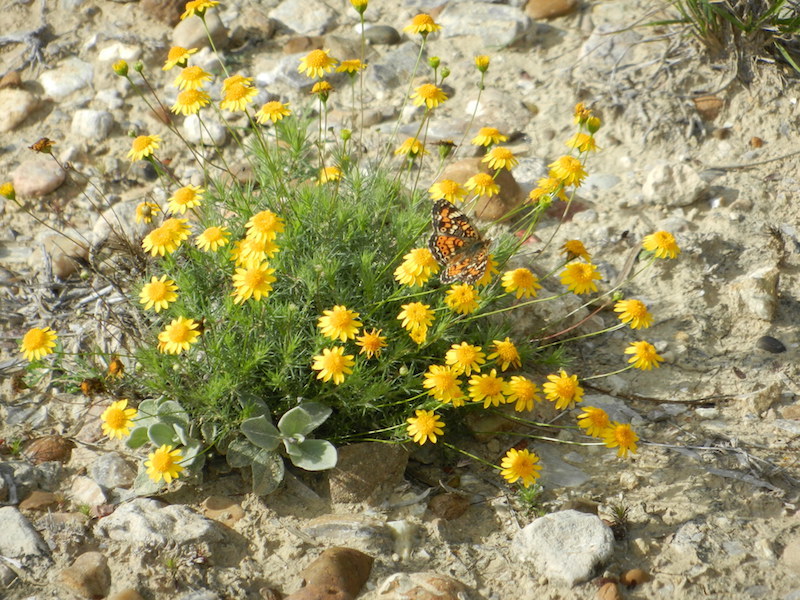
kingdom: Plantae
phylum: Tracheophyta
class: Magnoliopsida
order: Asterales
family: Asteraceae
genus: Thymophylla
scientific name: Thymophylla pentachaeta
